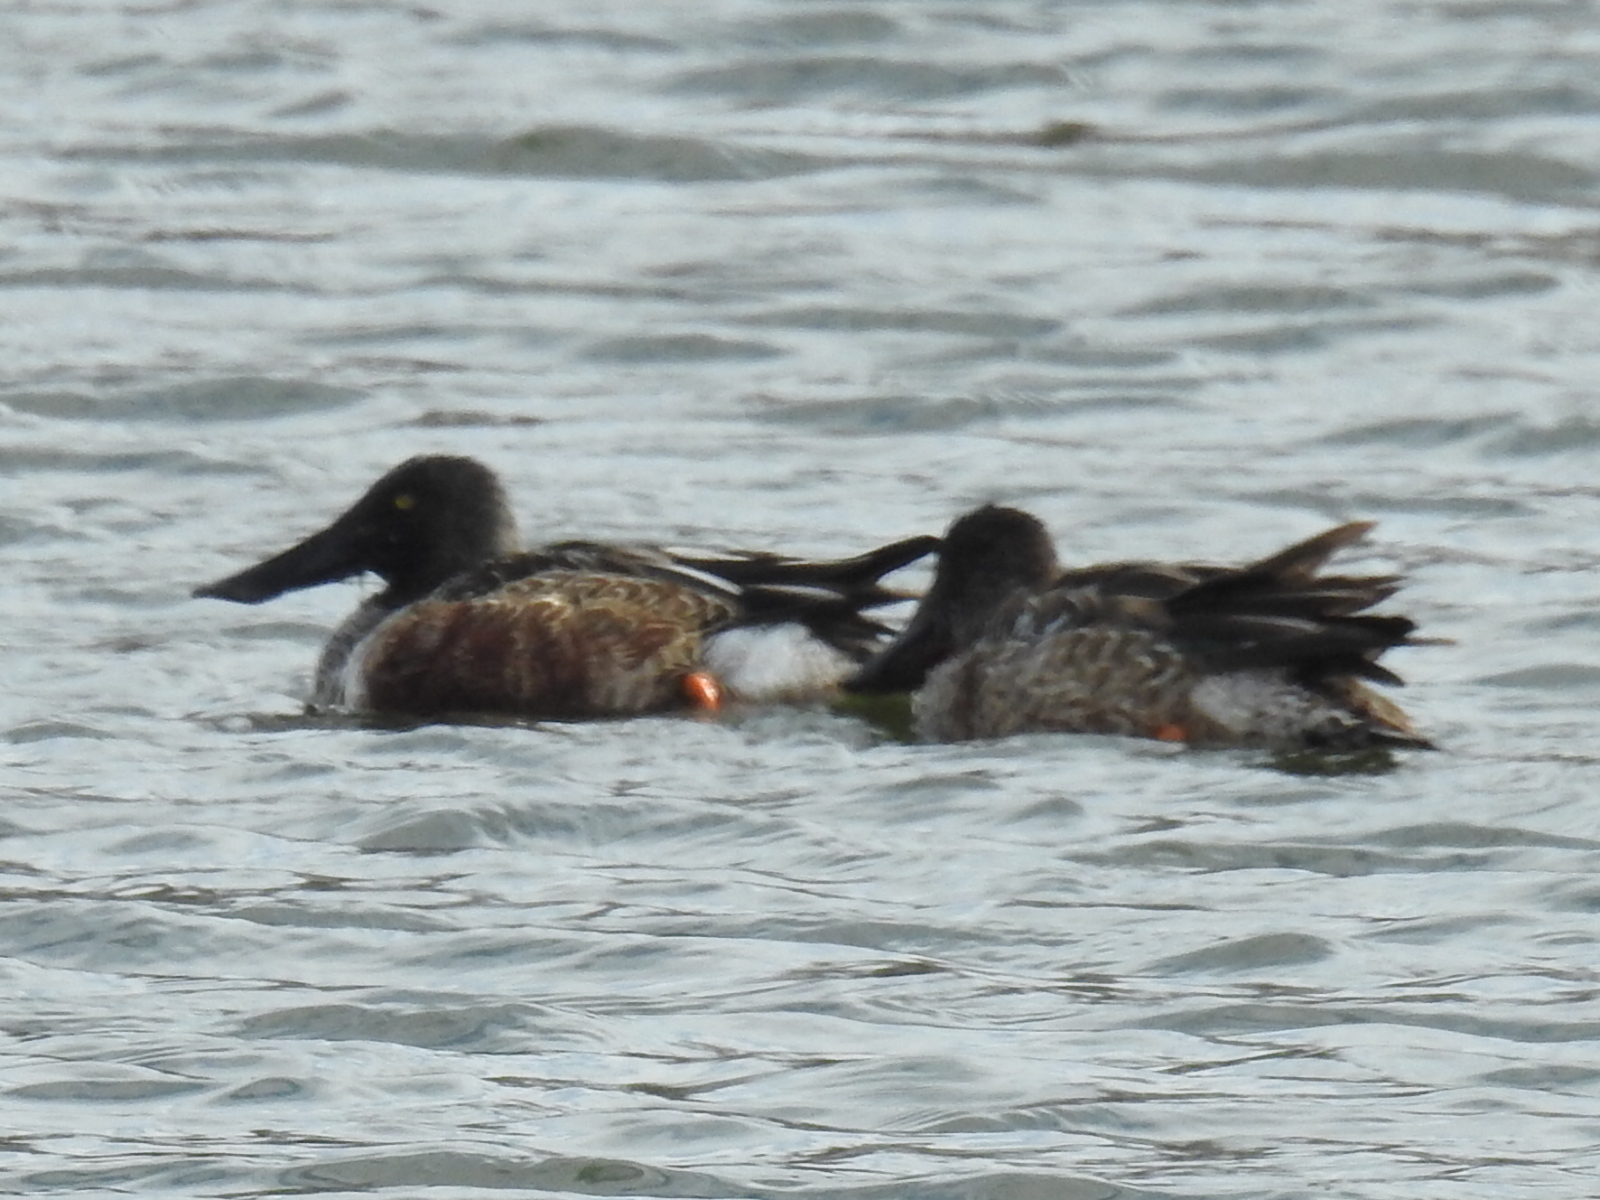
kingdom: Animalia
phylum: Chordata
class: Aves
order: Anseriformes
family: Anatidae
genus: Spatula
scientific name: Spatula clypeata
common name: Northern shoveler
